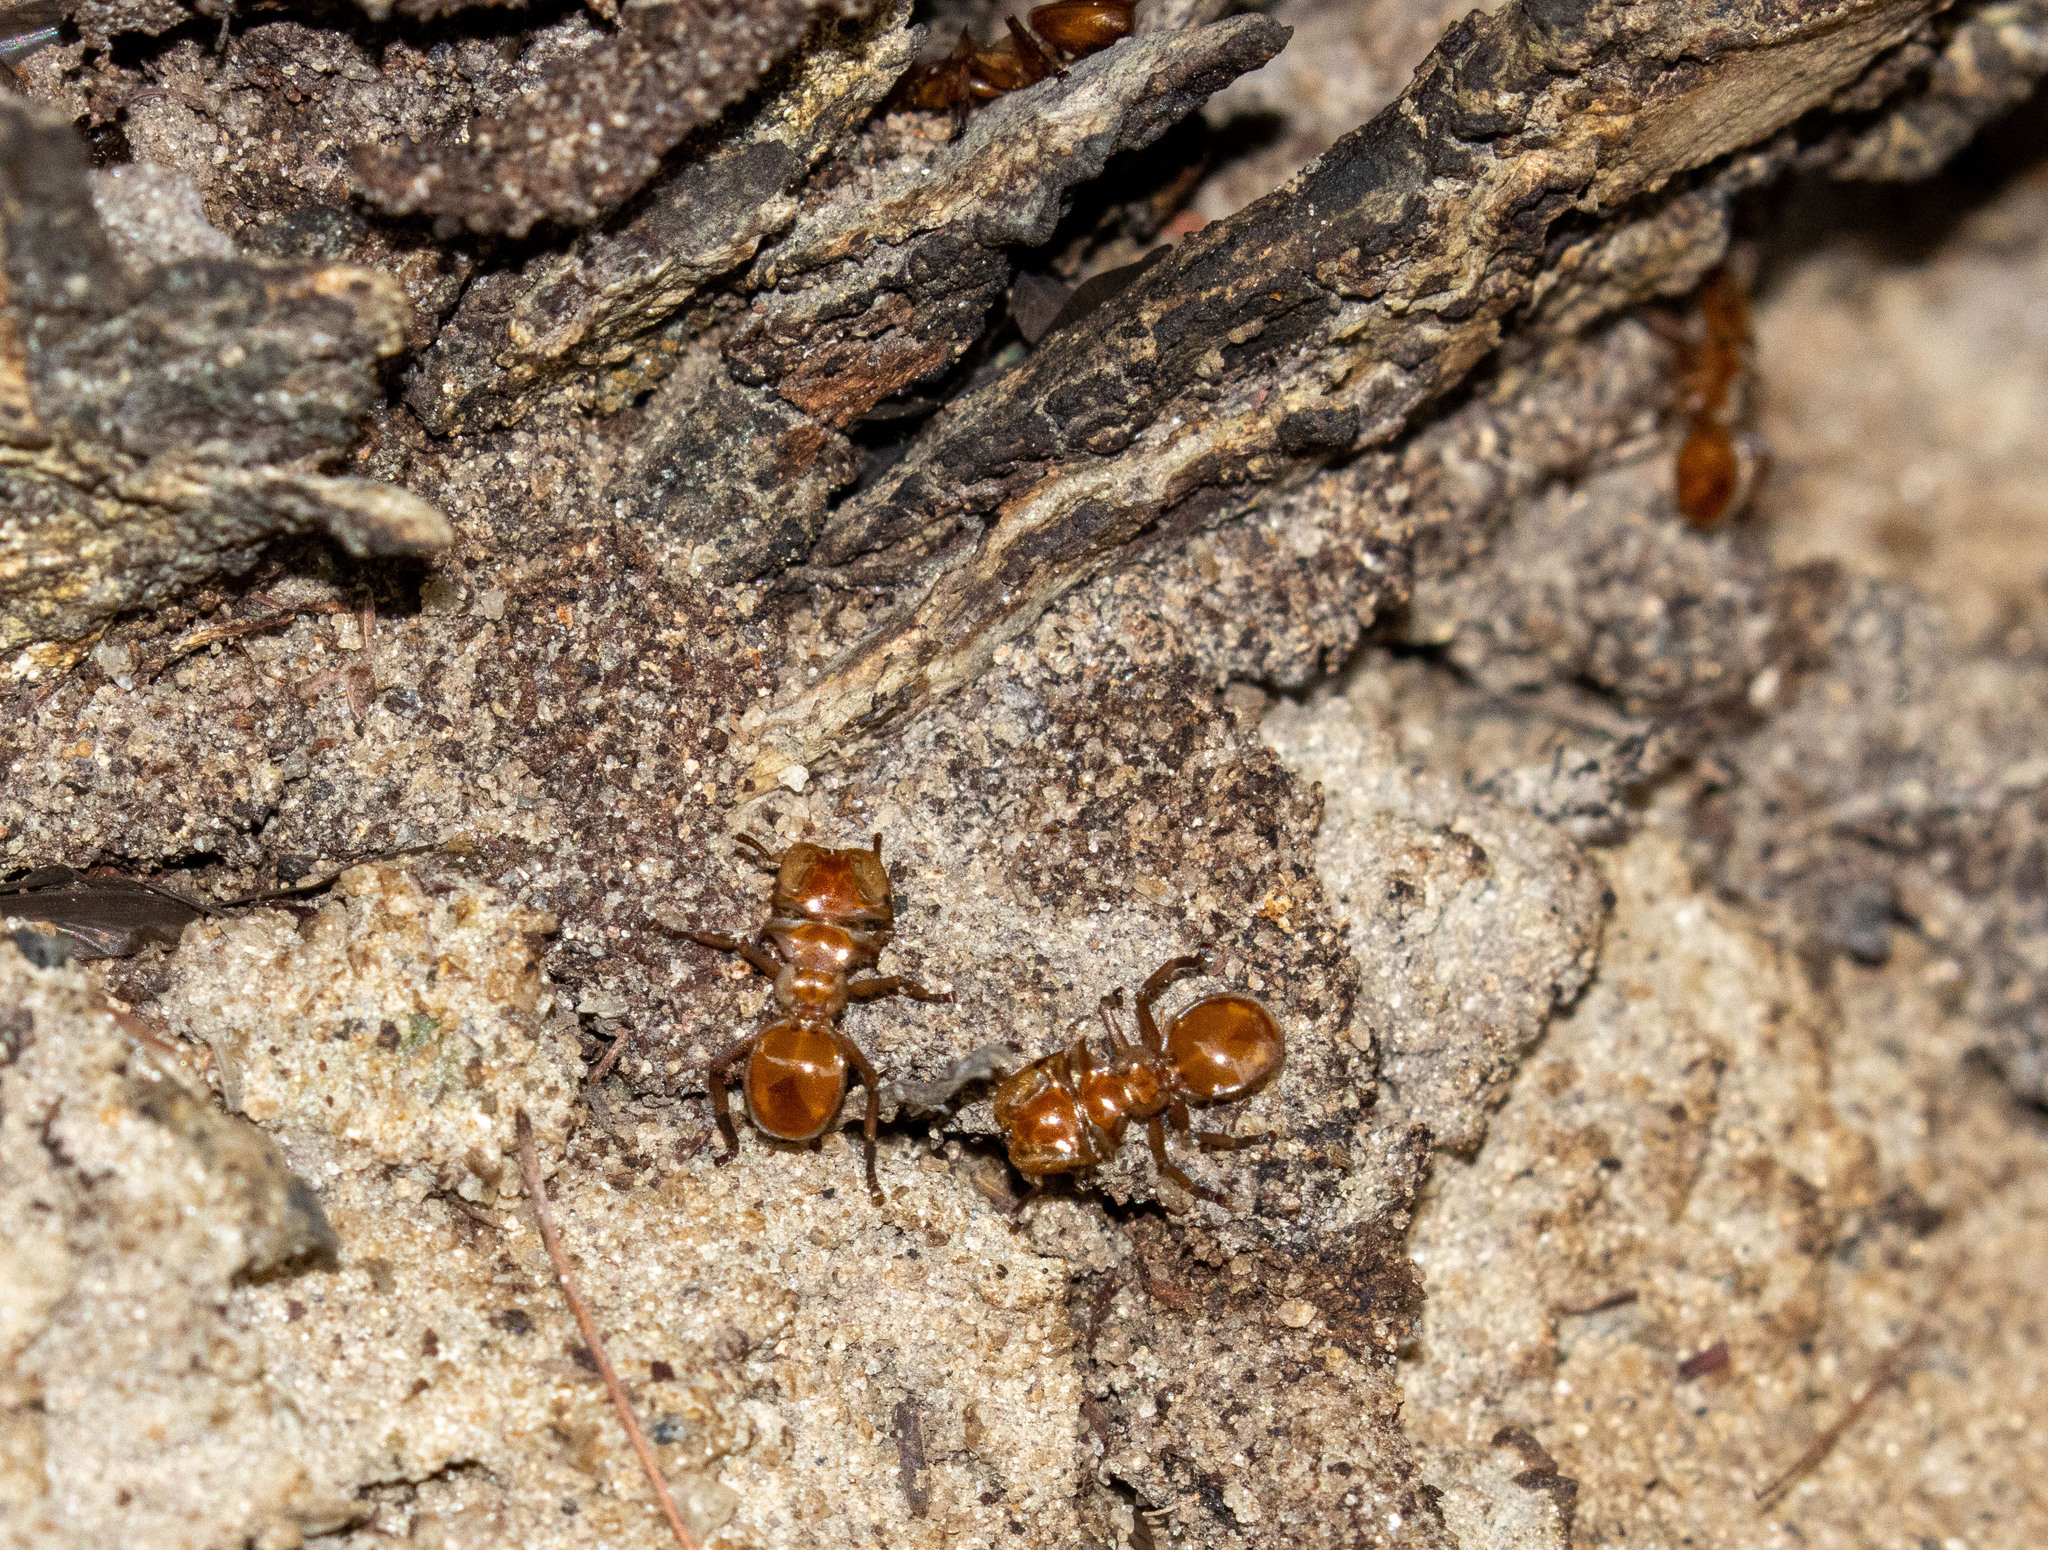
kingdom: Animalia
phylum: Arthropoda
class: Insecta
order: Hymenoptera
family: Formicidae
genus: Cephalotes
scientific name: Cephalotes clypeatus
